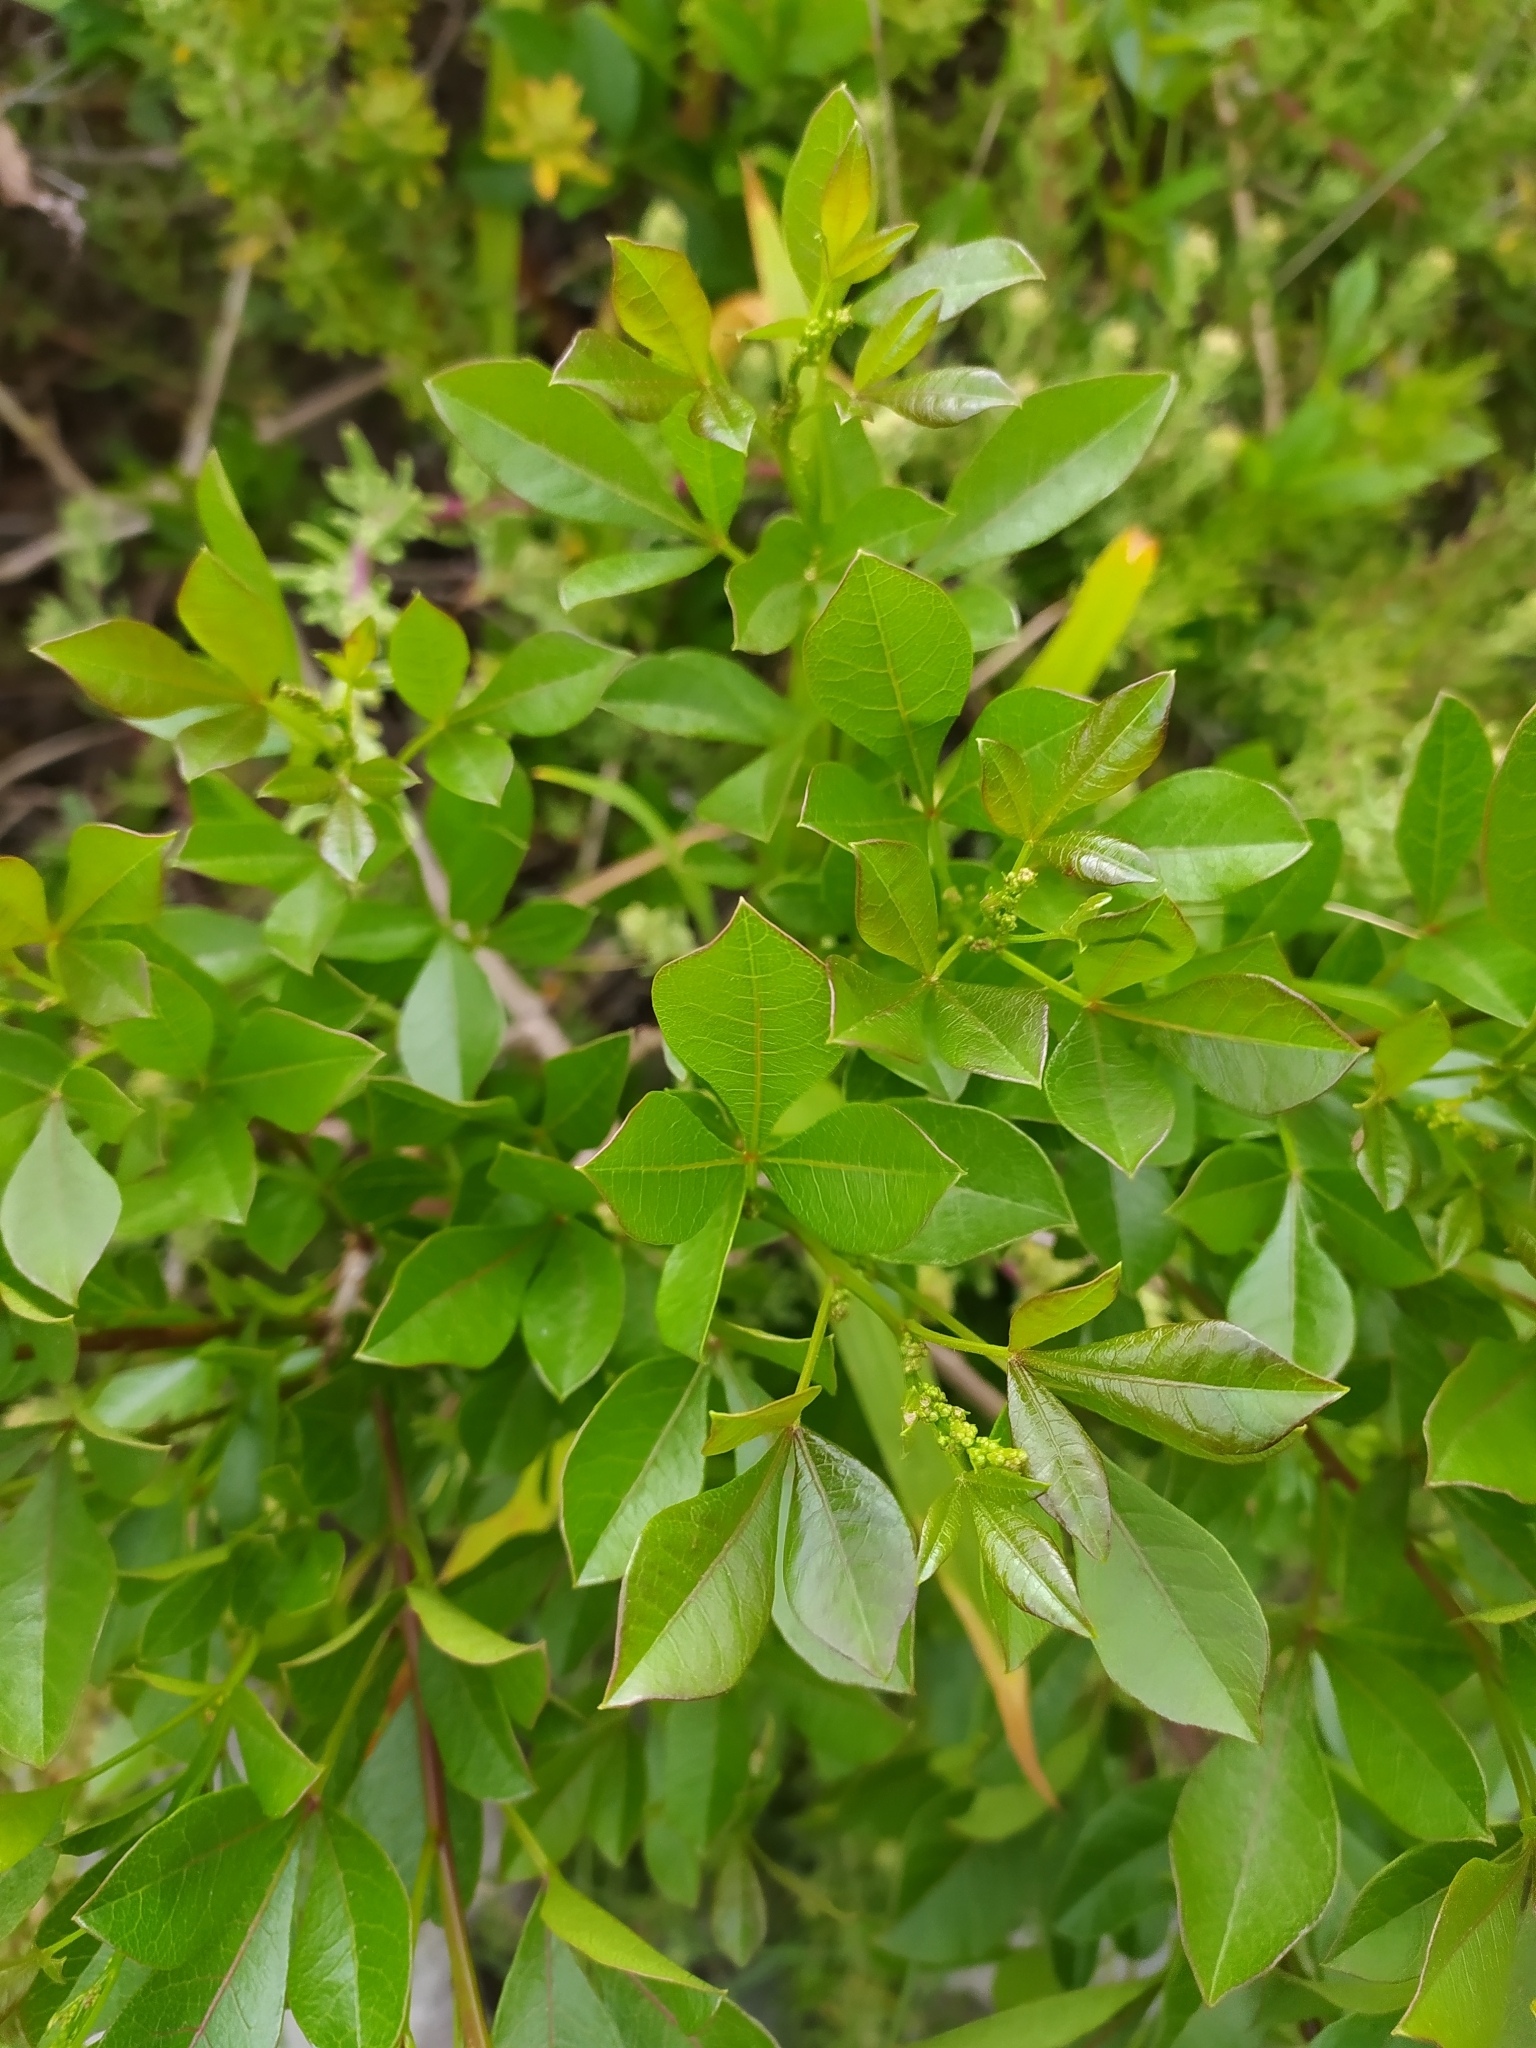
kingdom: Plantae
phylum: Tracheophyta
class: Magnoliopsida
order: Sapindales
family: Anacardiaceae
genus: Searsia
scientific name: Searsia laevigata
